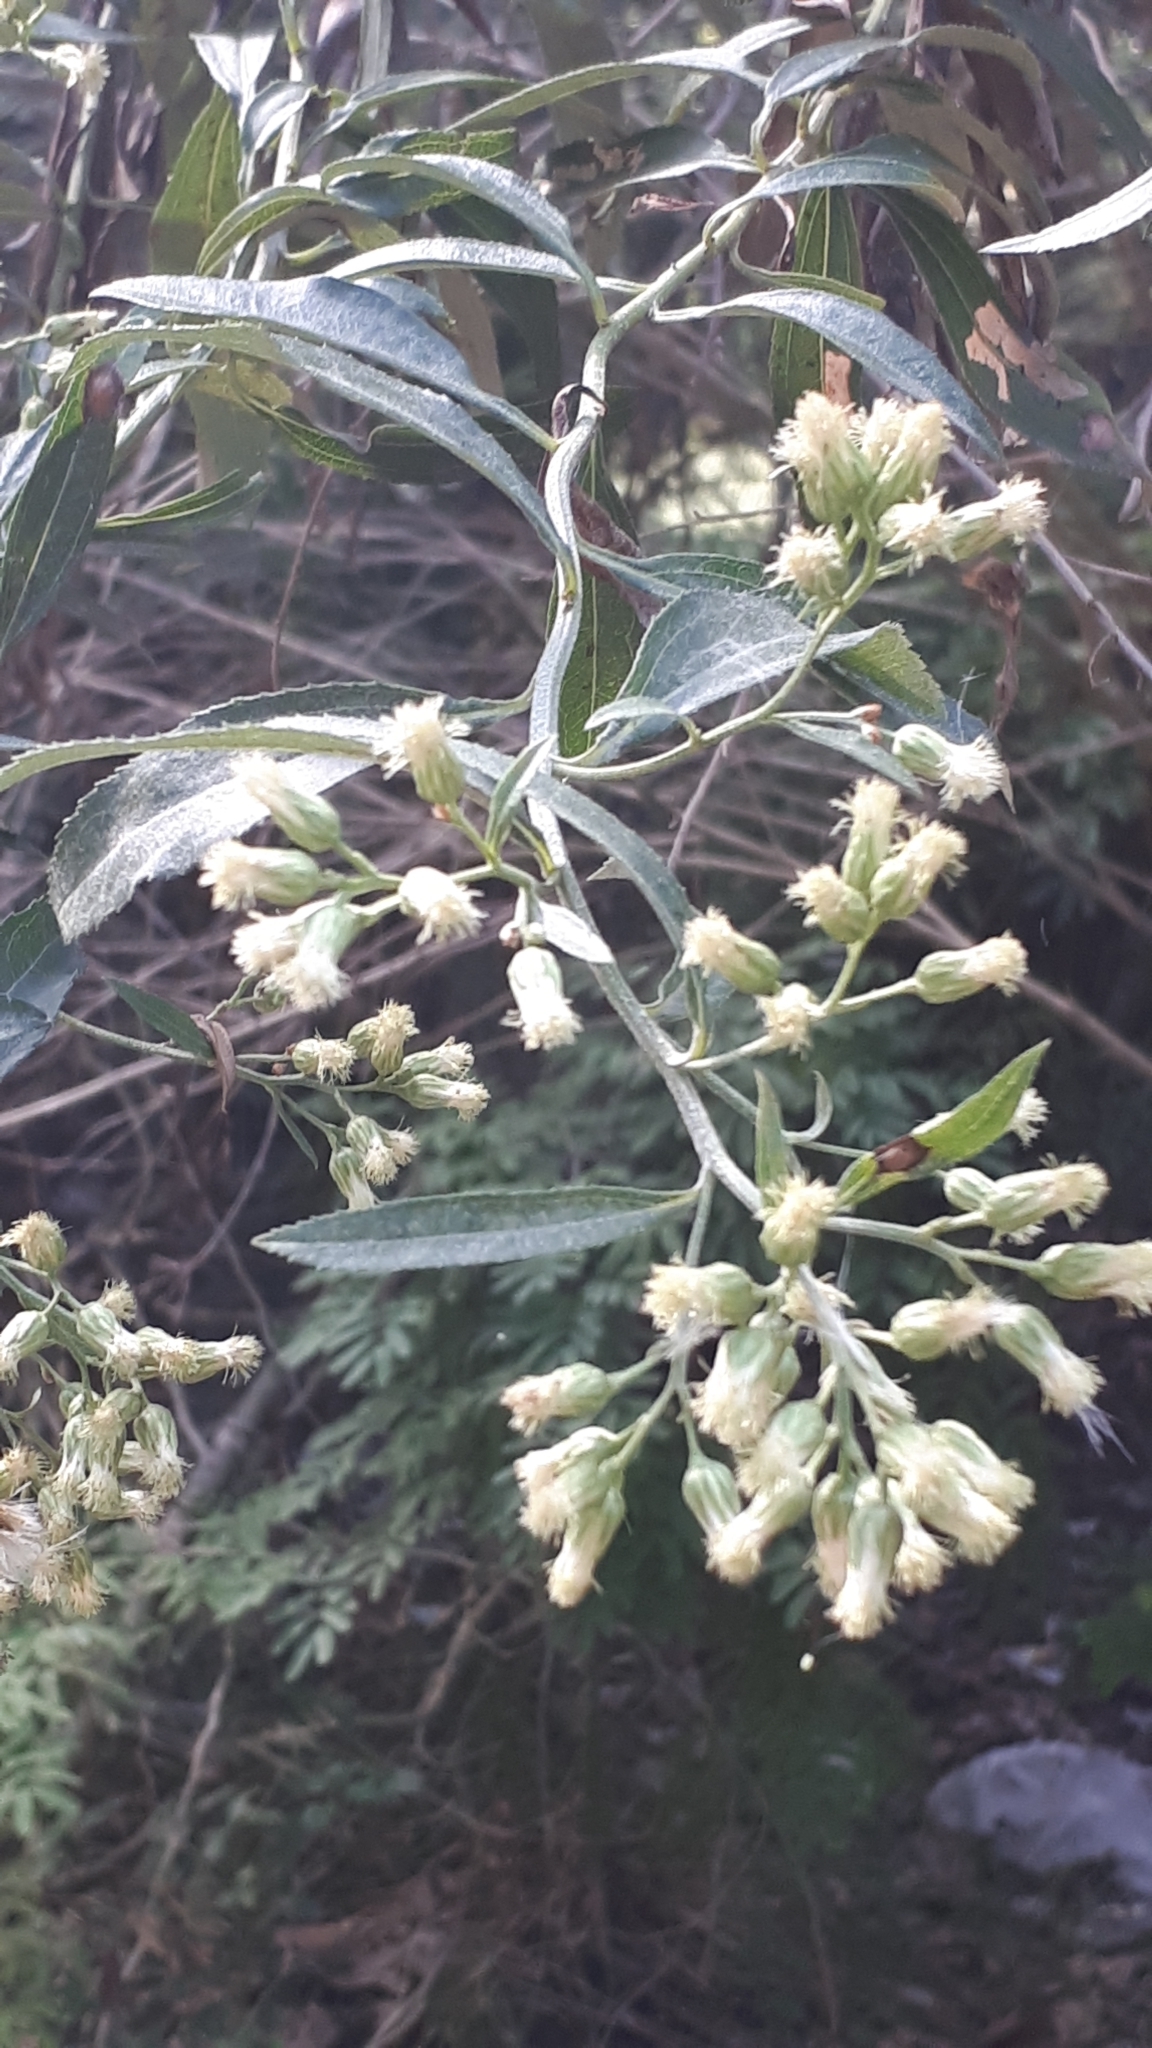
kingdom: Plantae
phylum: Tracheophyta
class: Magnoliopsida
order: Asterales
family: Asteraceae
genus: Baccharis
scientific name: Baccharis punctulata
